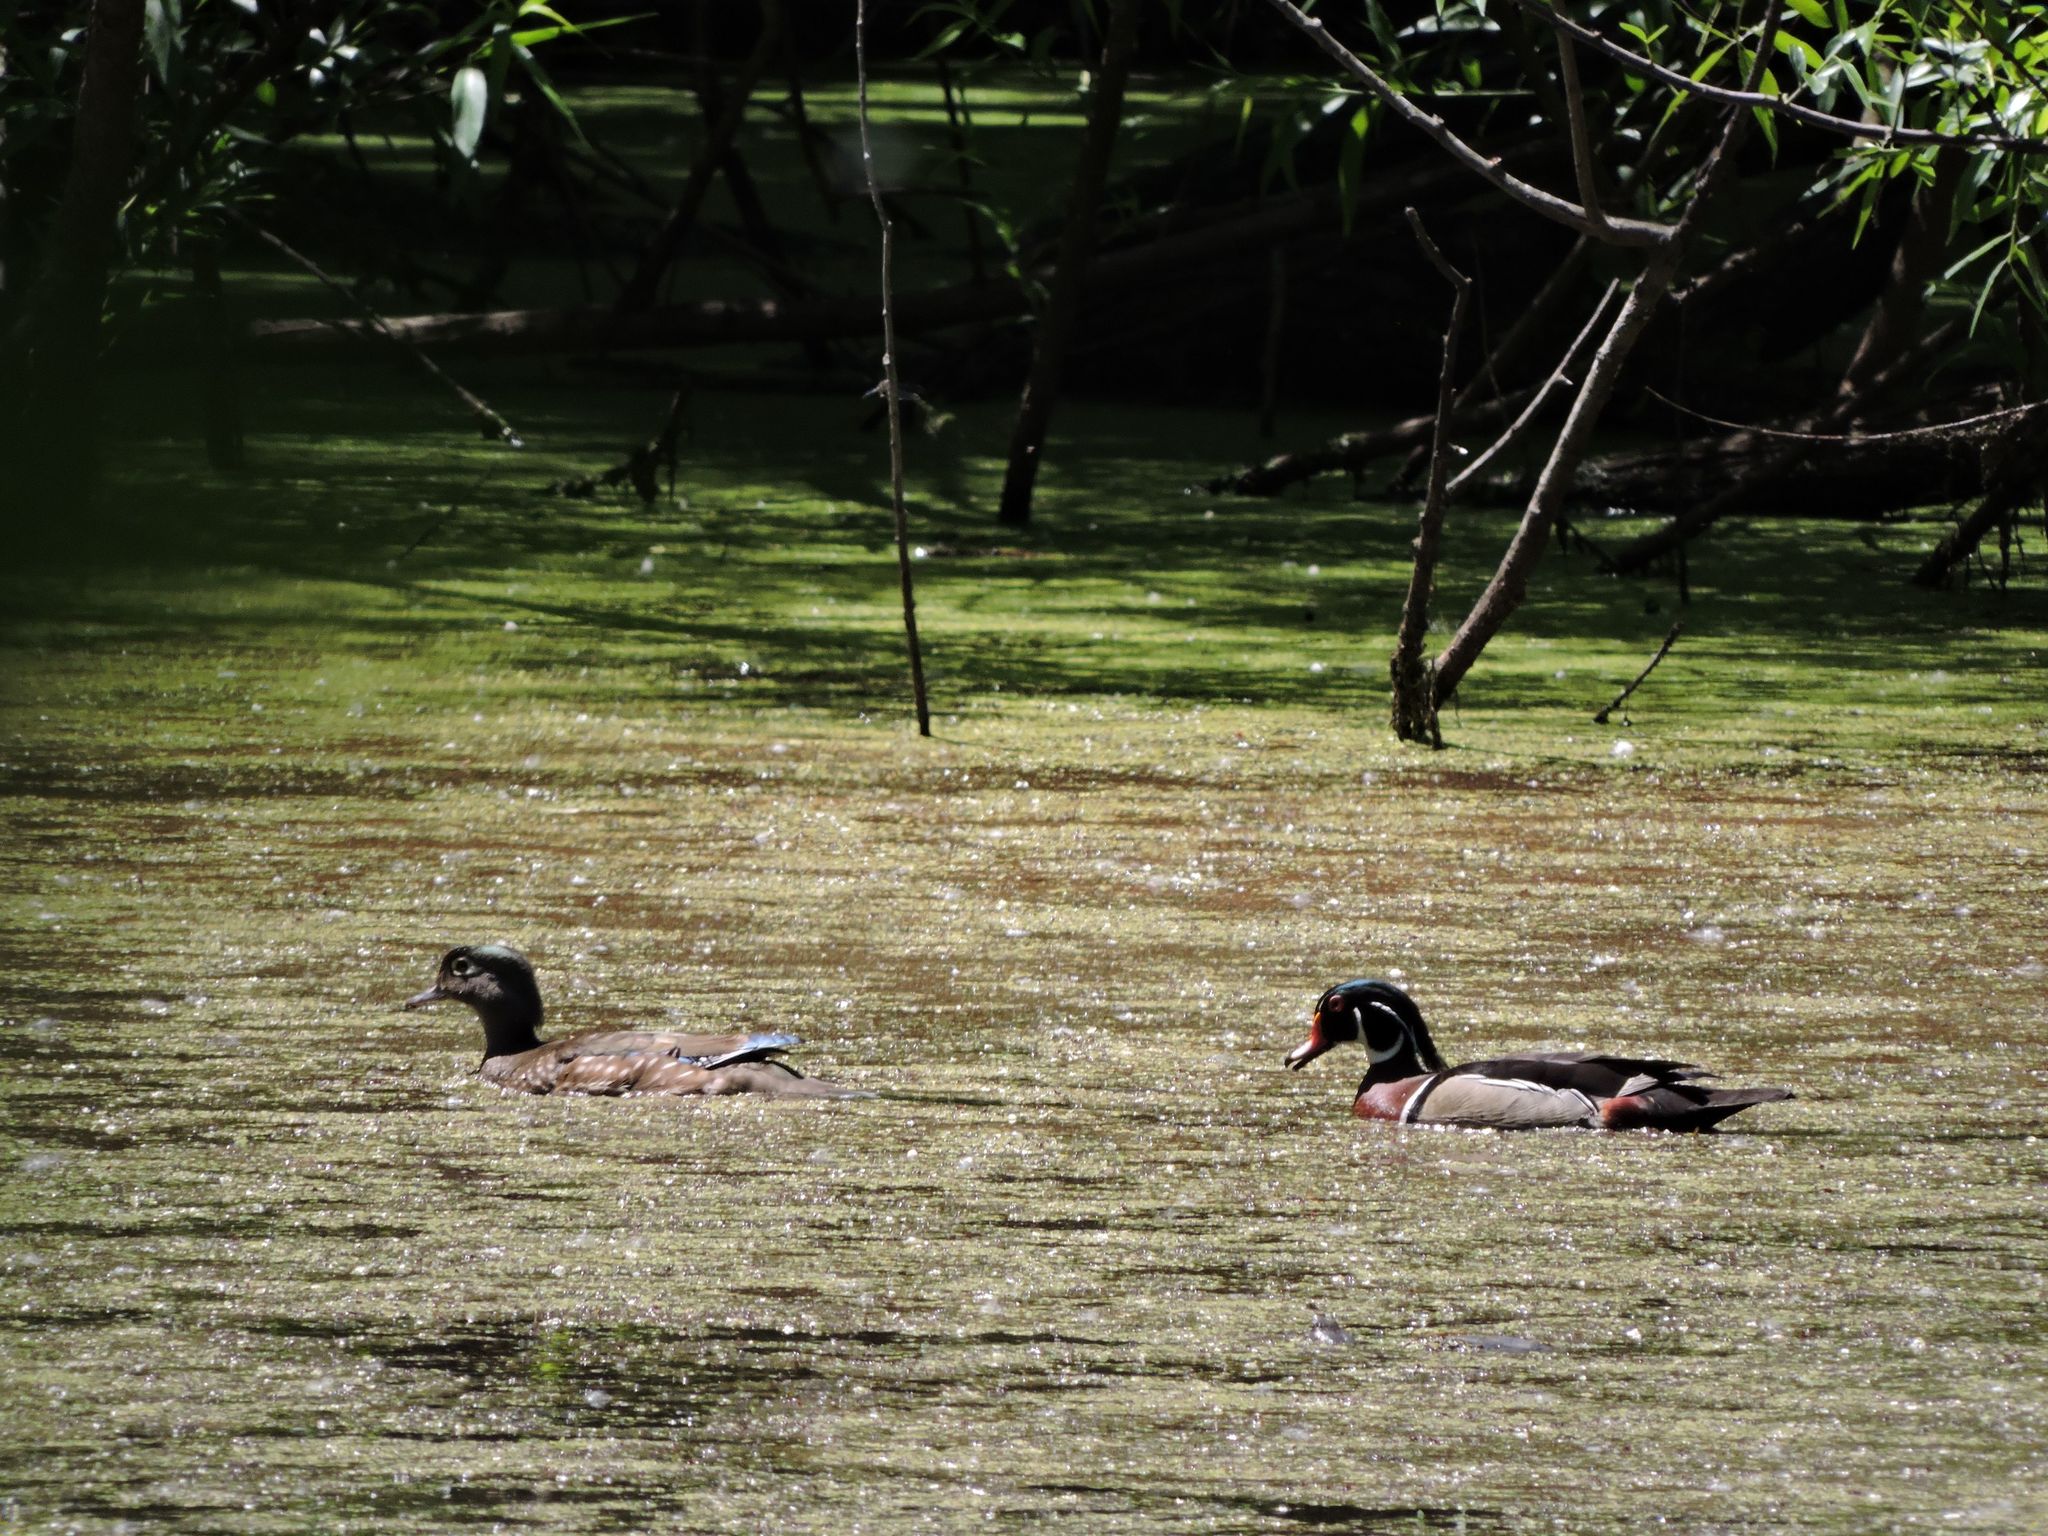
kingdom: Animalia
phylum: Chordata
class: Aves
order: Anseriformes
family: Anatidae
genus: Aix
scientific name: Aix sponsa
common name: Wood duck
